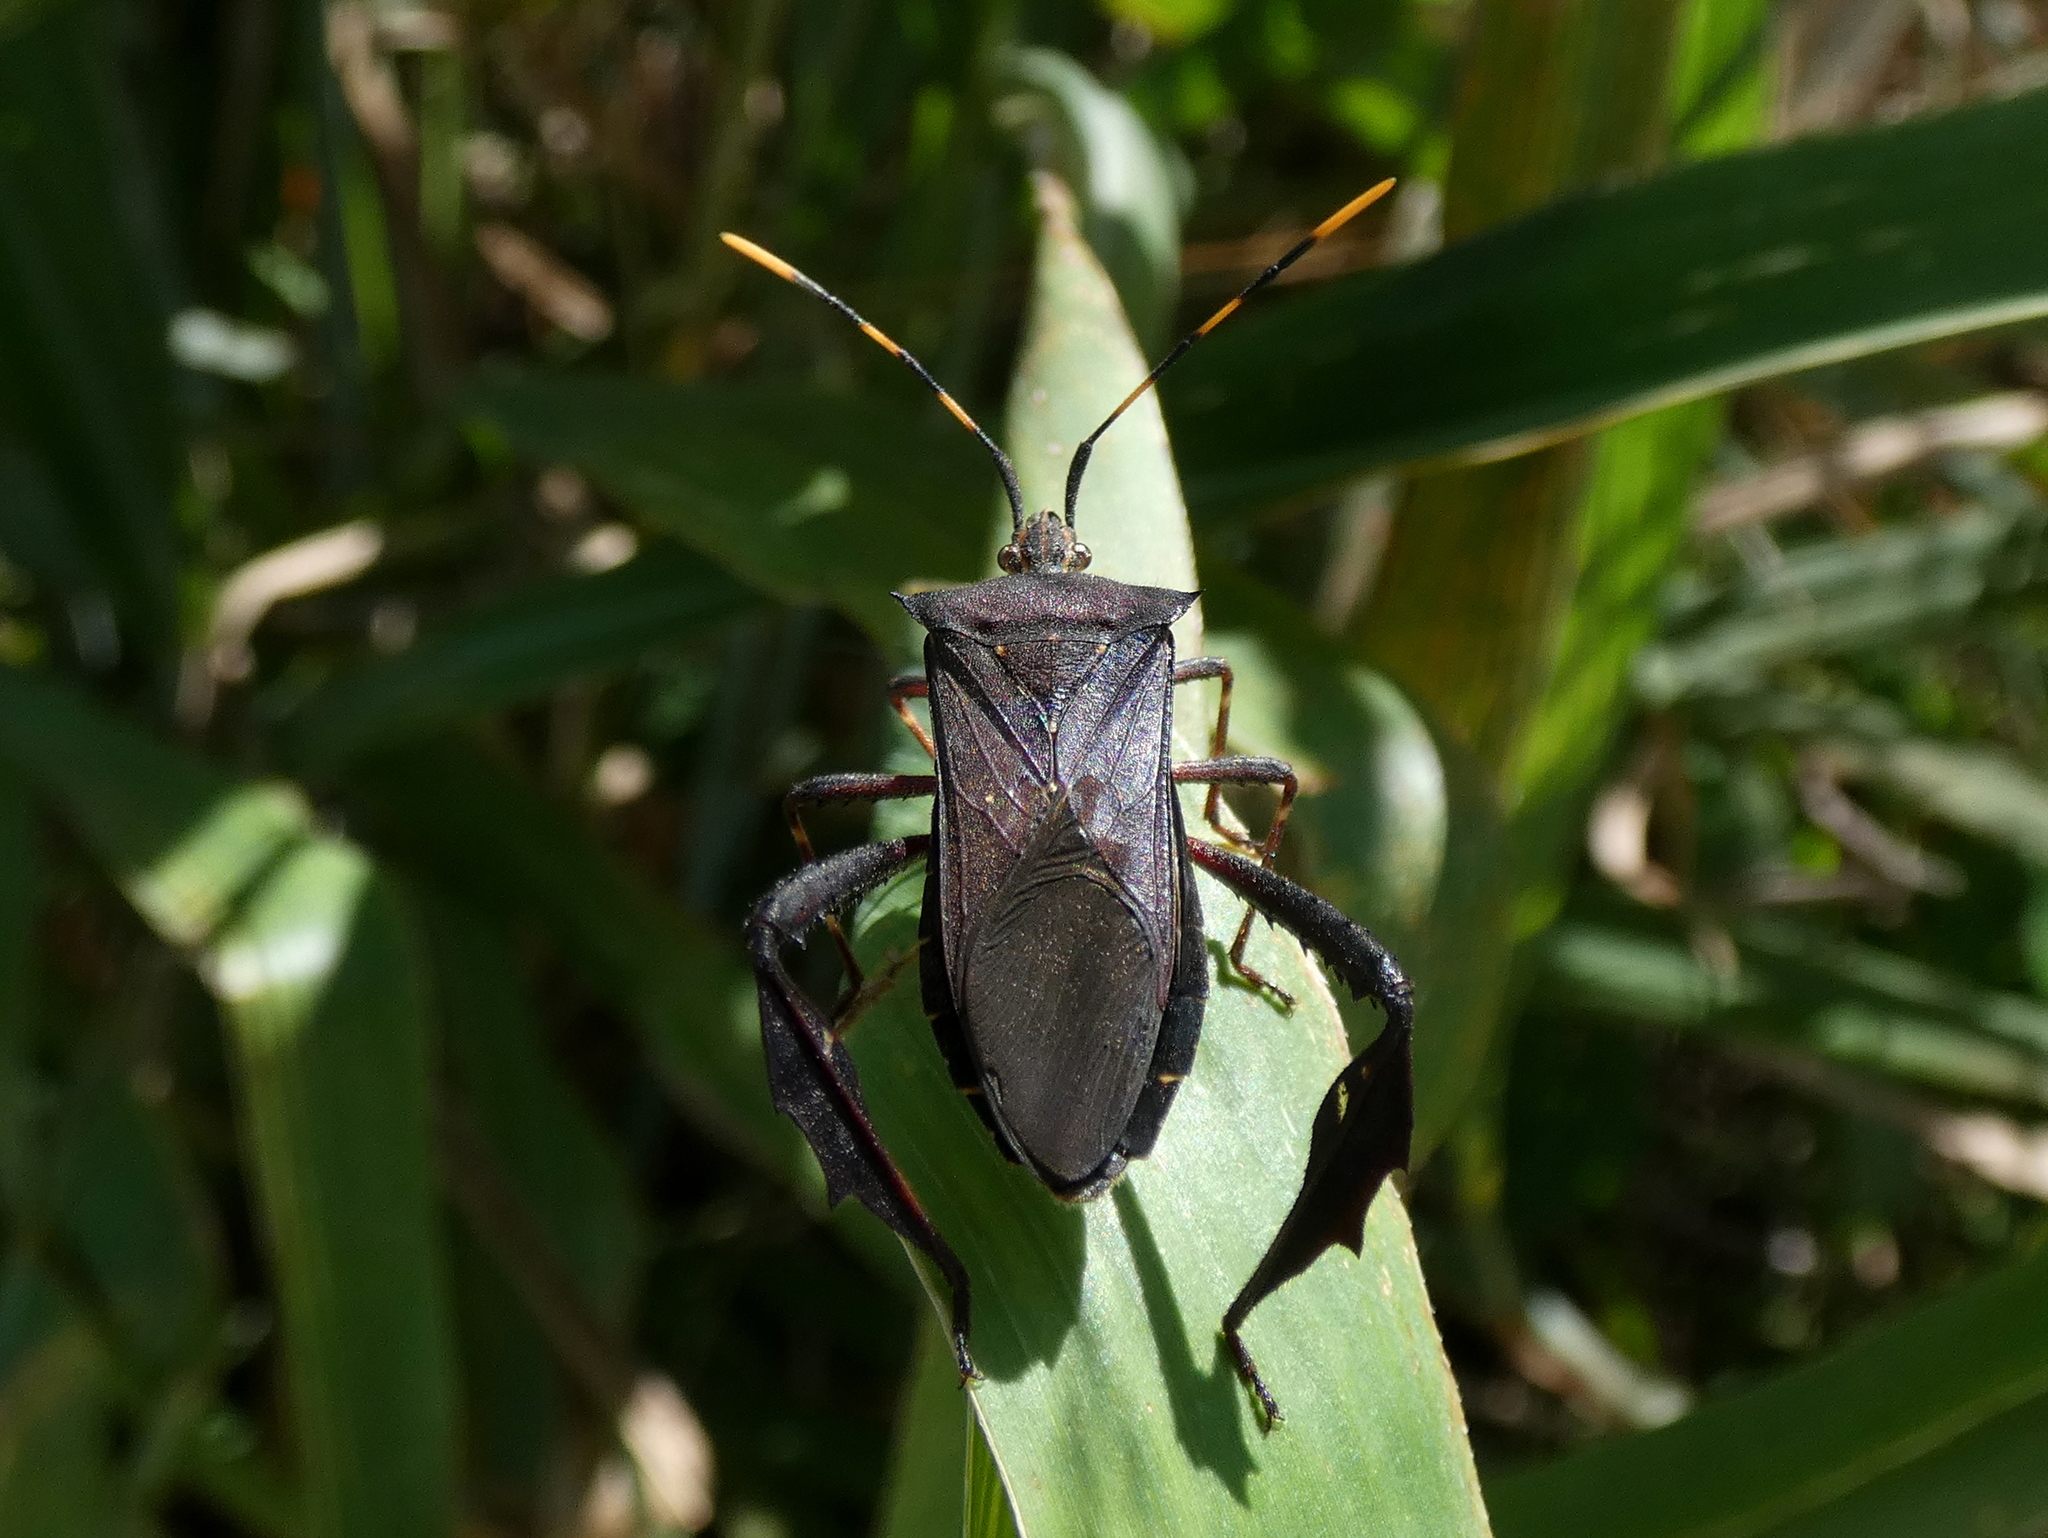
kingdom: Animalia
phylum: Arthropoda
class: Insecta
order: Hemiptera
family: Coreidae
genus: Leptoglossus
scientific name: Leptoglossus gonagra
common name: Citron bug
